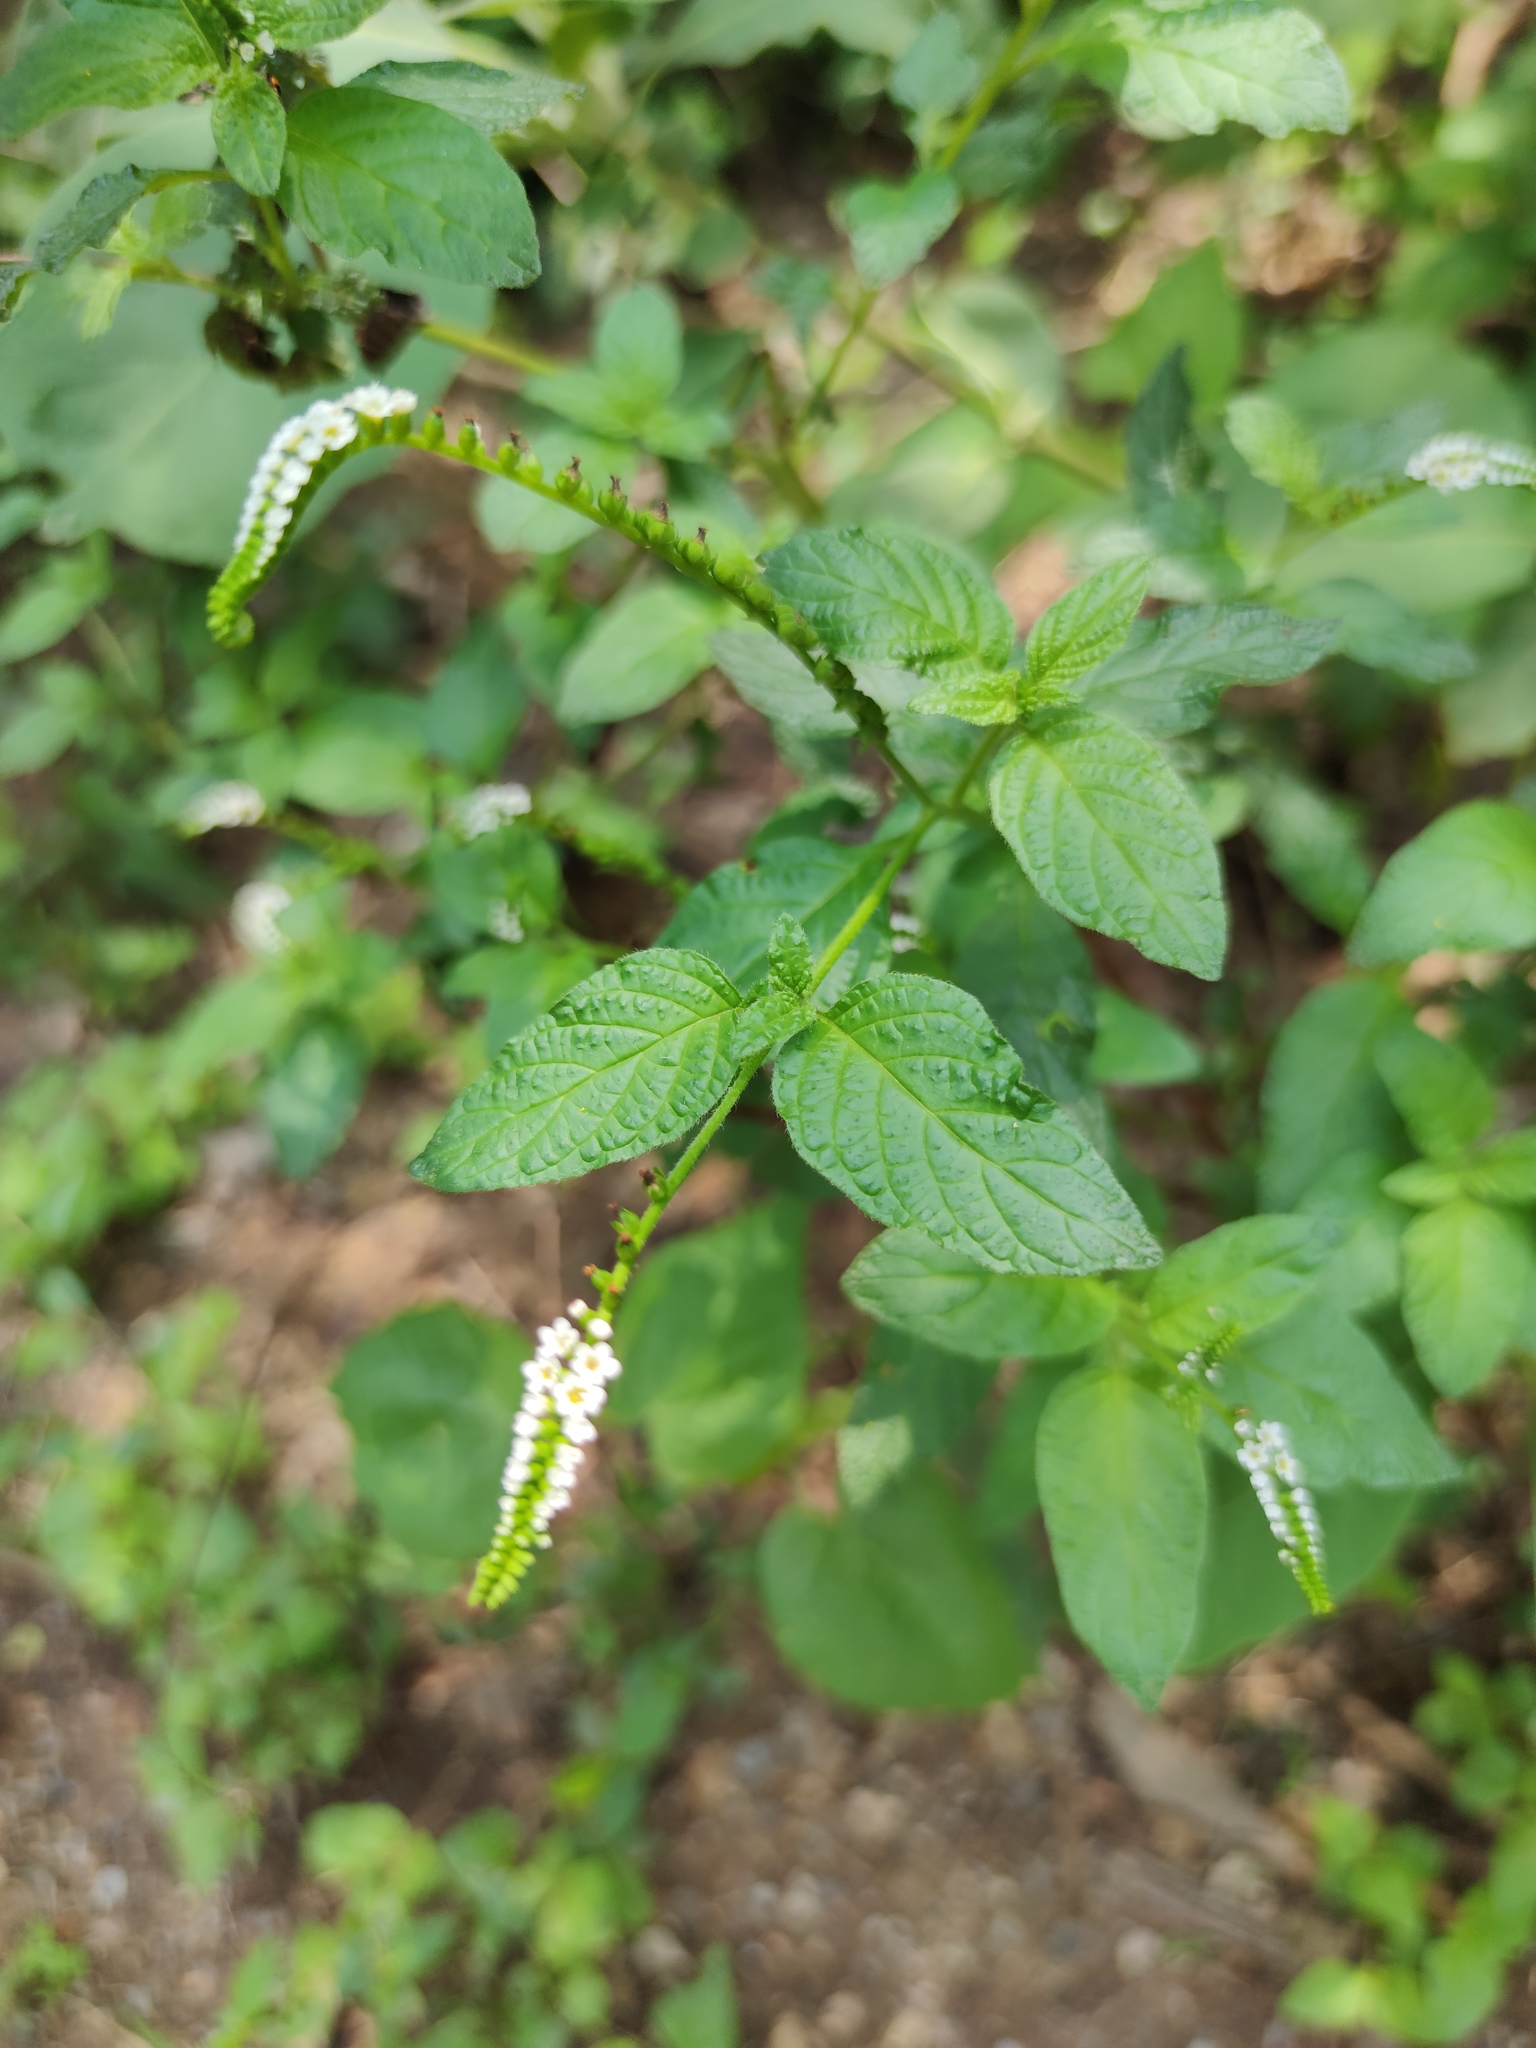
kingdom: Plantae
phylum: Tracheophyta
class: Magnoliopsida
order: Boraginales
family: Heliotropiaceae
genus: Heliotropium
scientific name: Heliotropium angiospermum
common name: Eye bright
